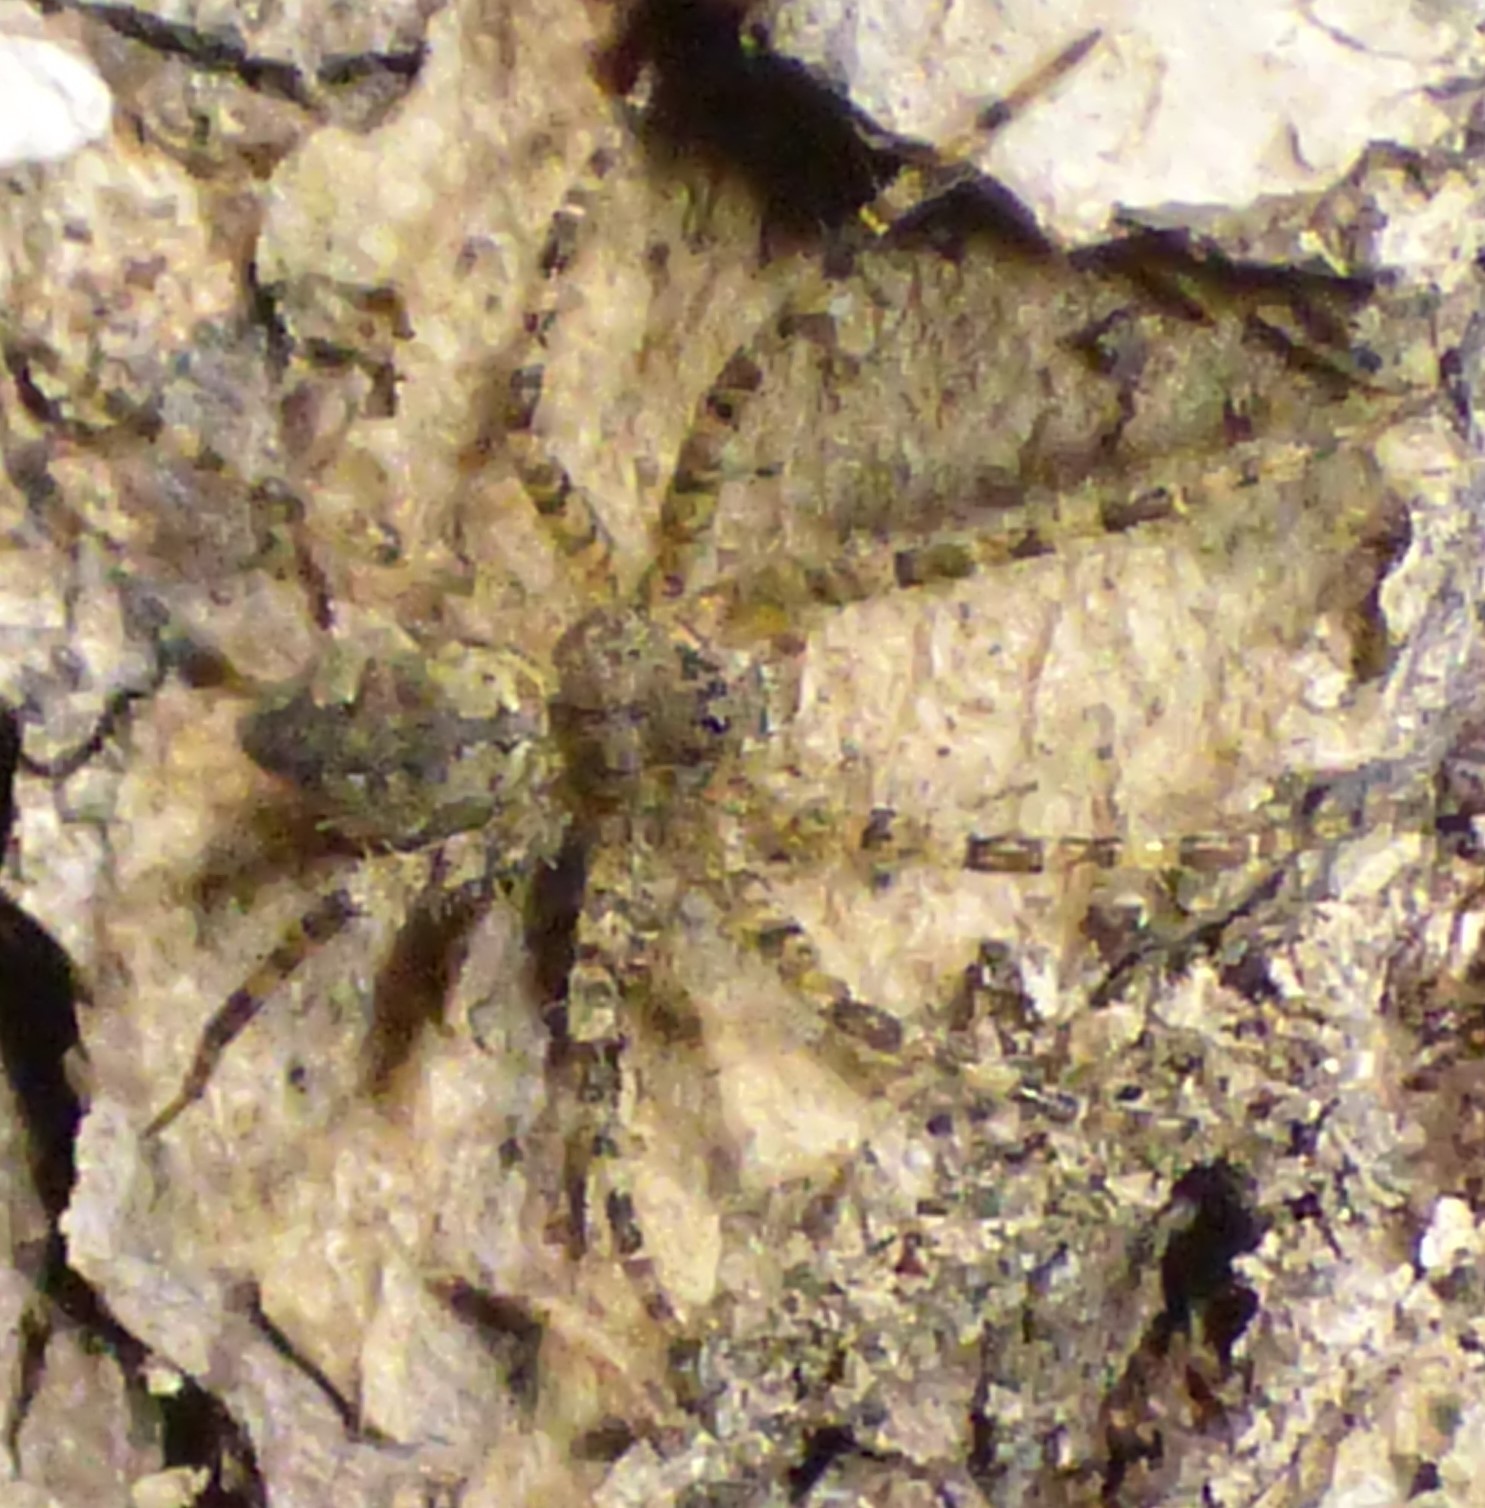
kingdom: Animalia
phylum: Arthropoda
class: Arachnida
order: Araneae
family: Pisauridae
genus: Dolomedes
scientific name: Dolomedes albineus
